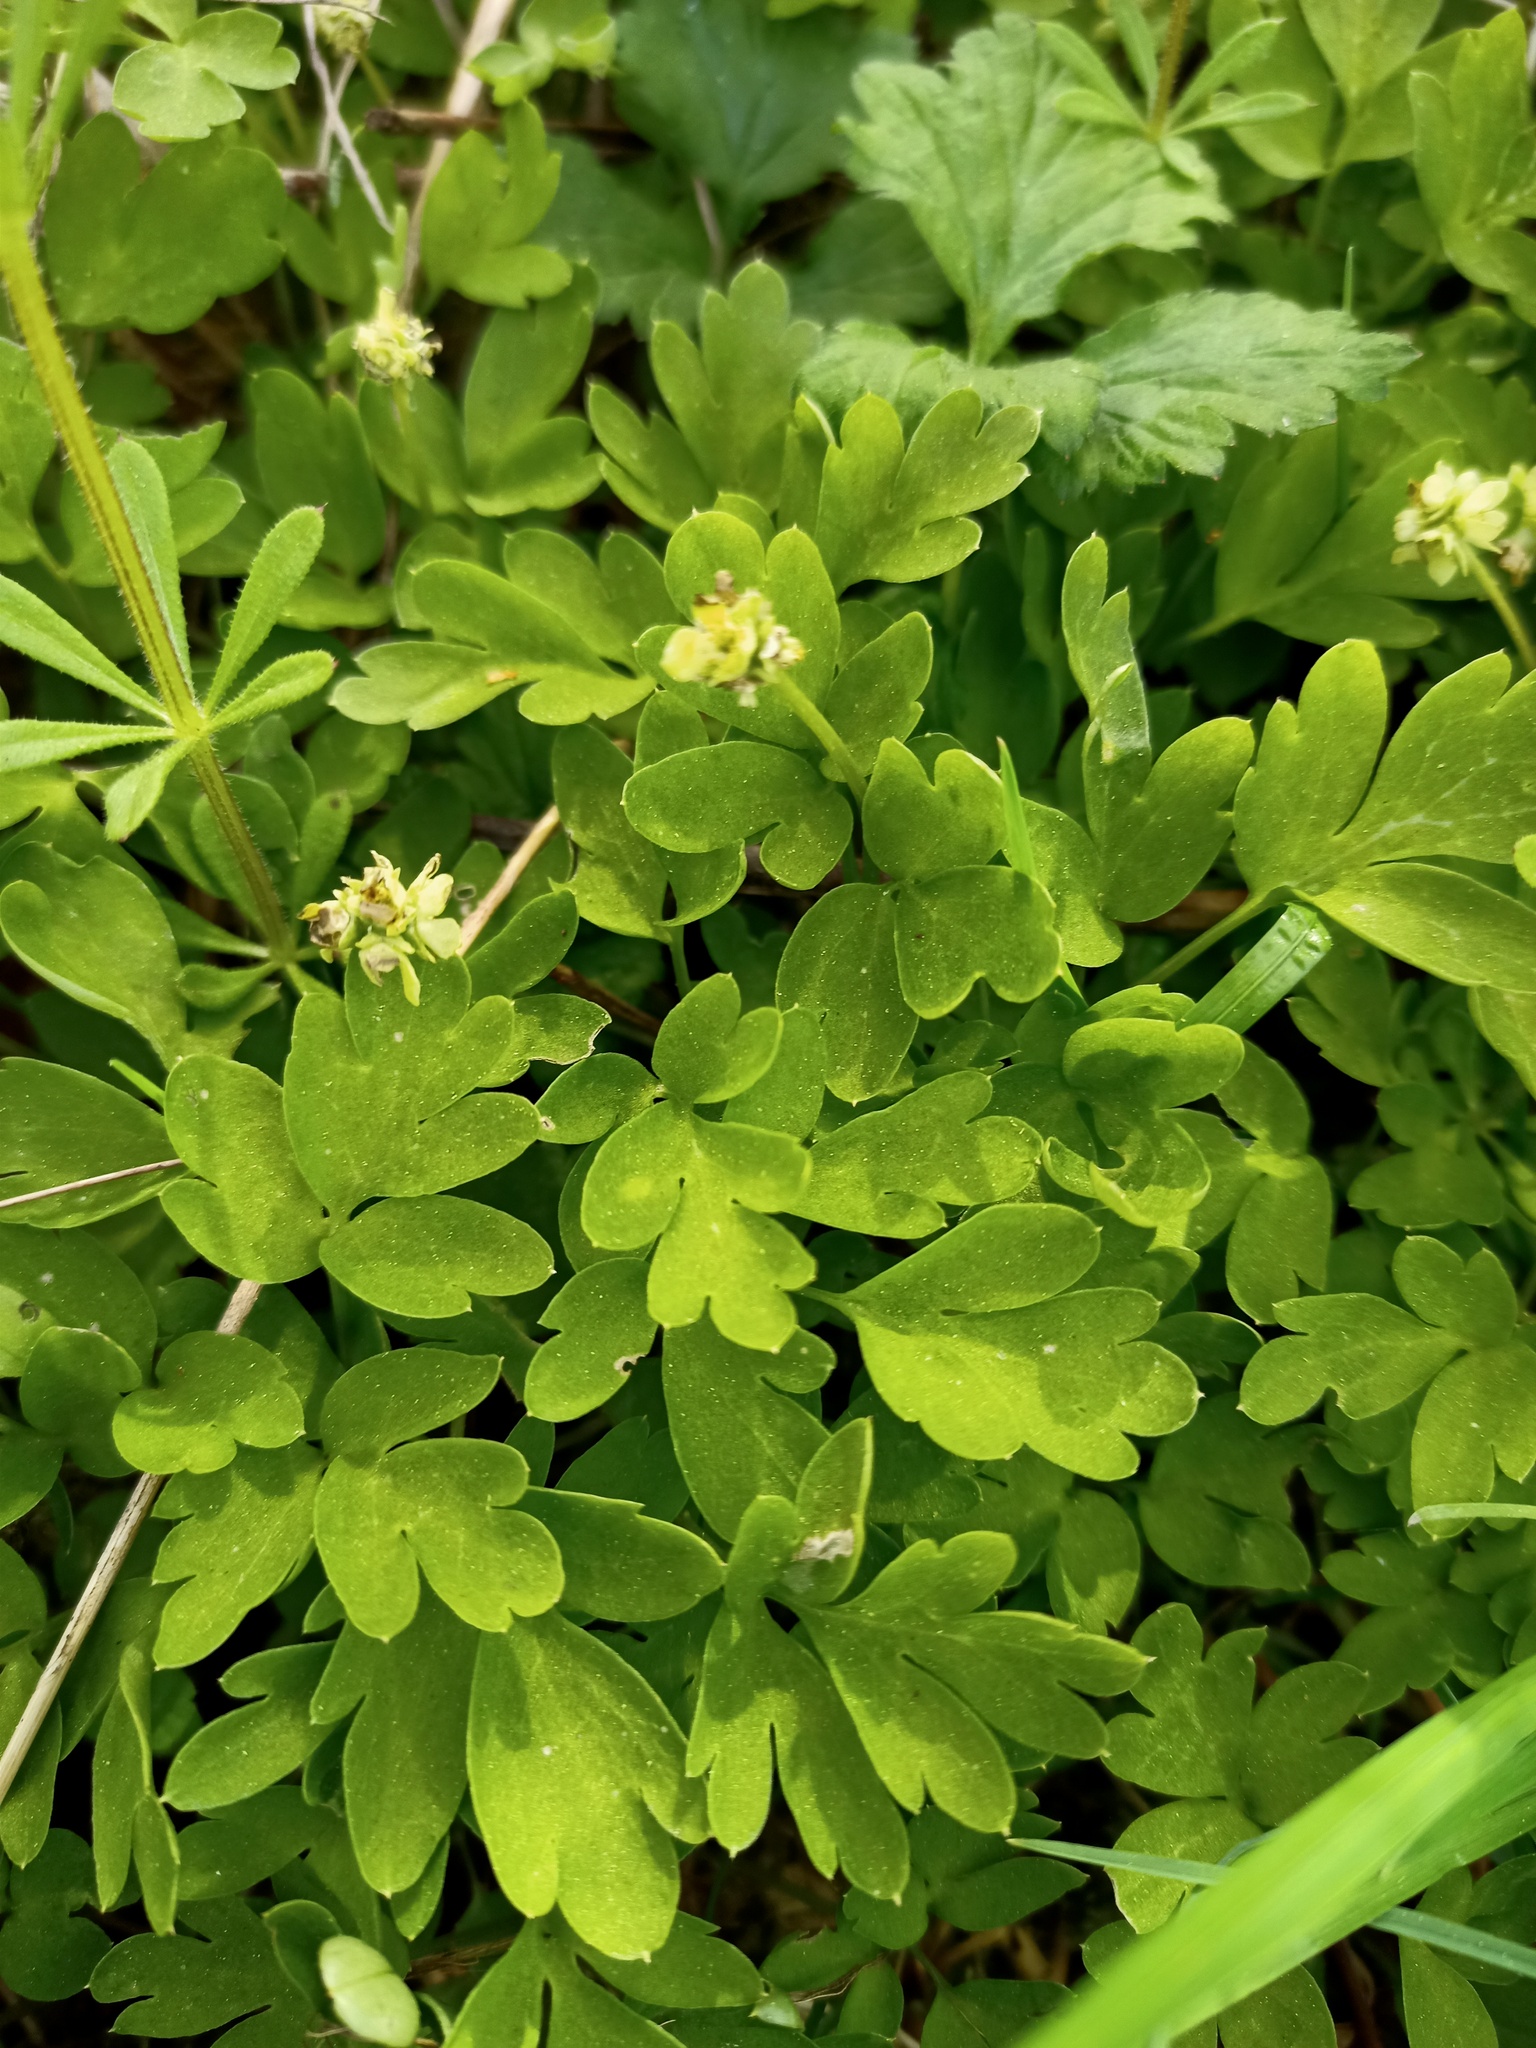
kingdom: Plantae
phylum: Tracheophyta
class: Magnoliopsida
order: Dipsacales
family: Viburnaceae
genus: Adoxa
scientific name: Adoxa moschatellina
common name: Moschatel
